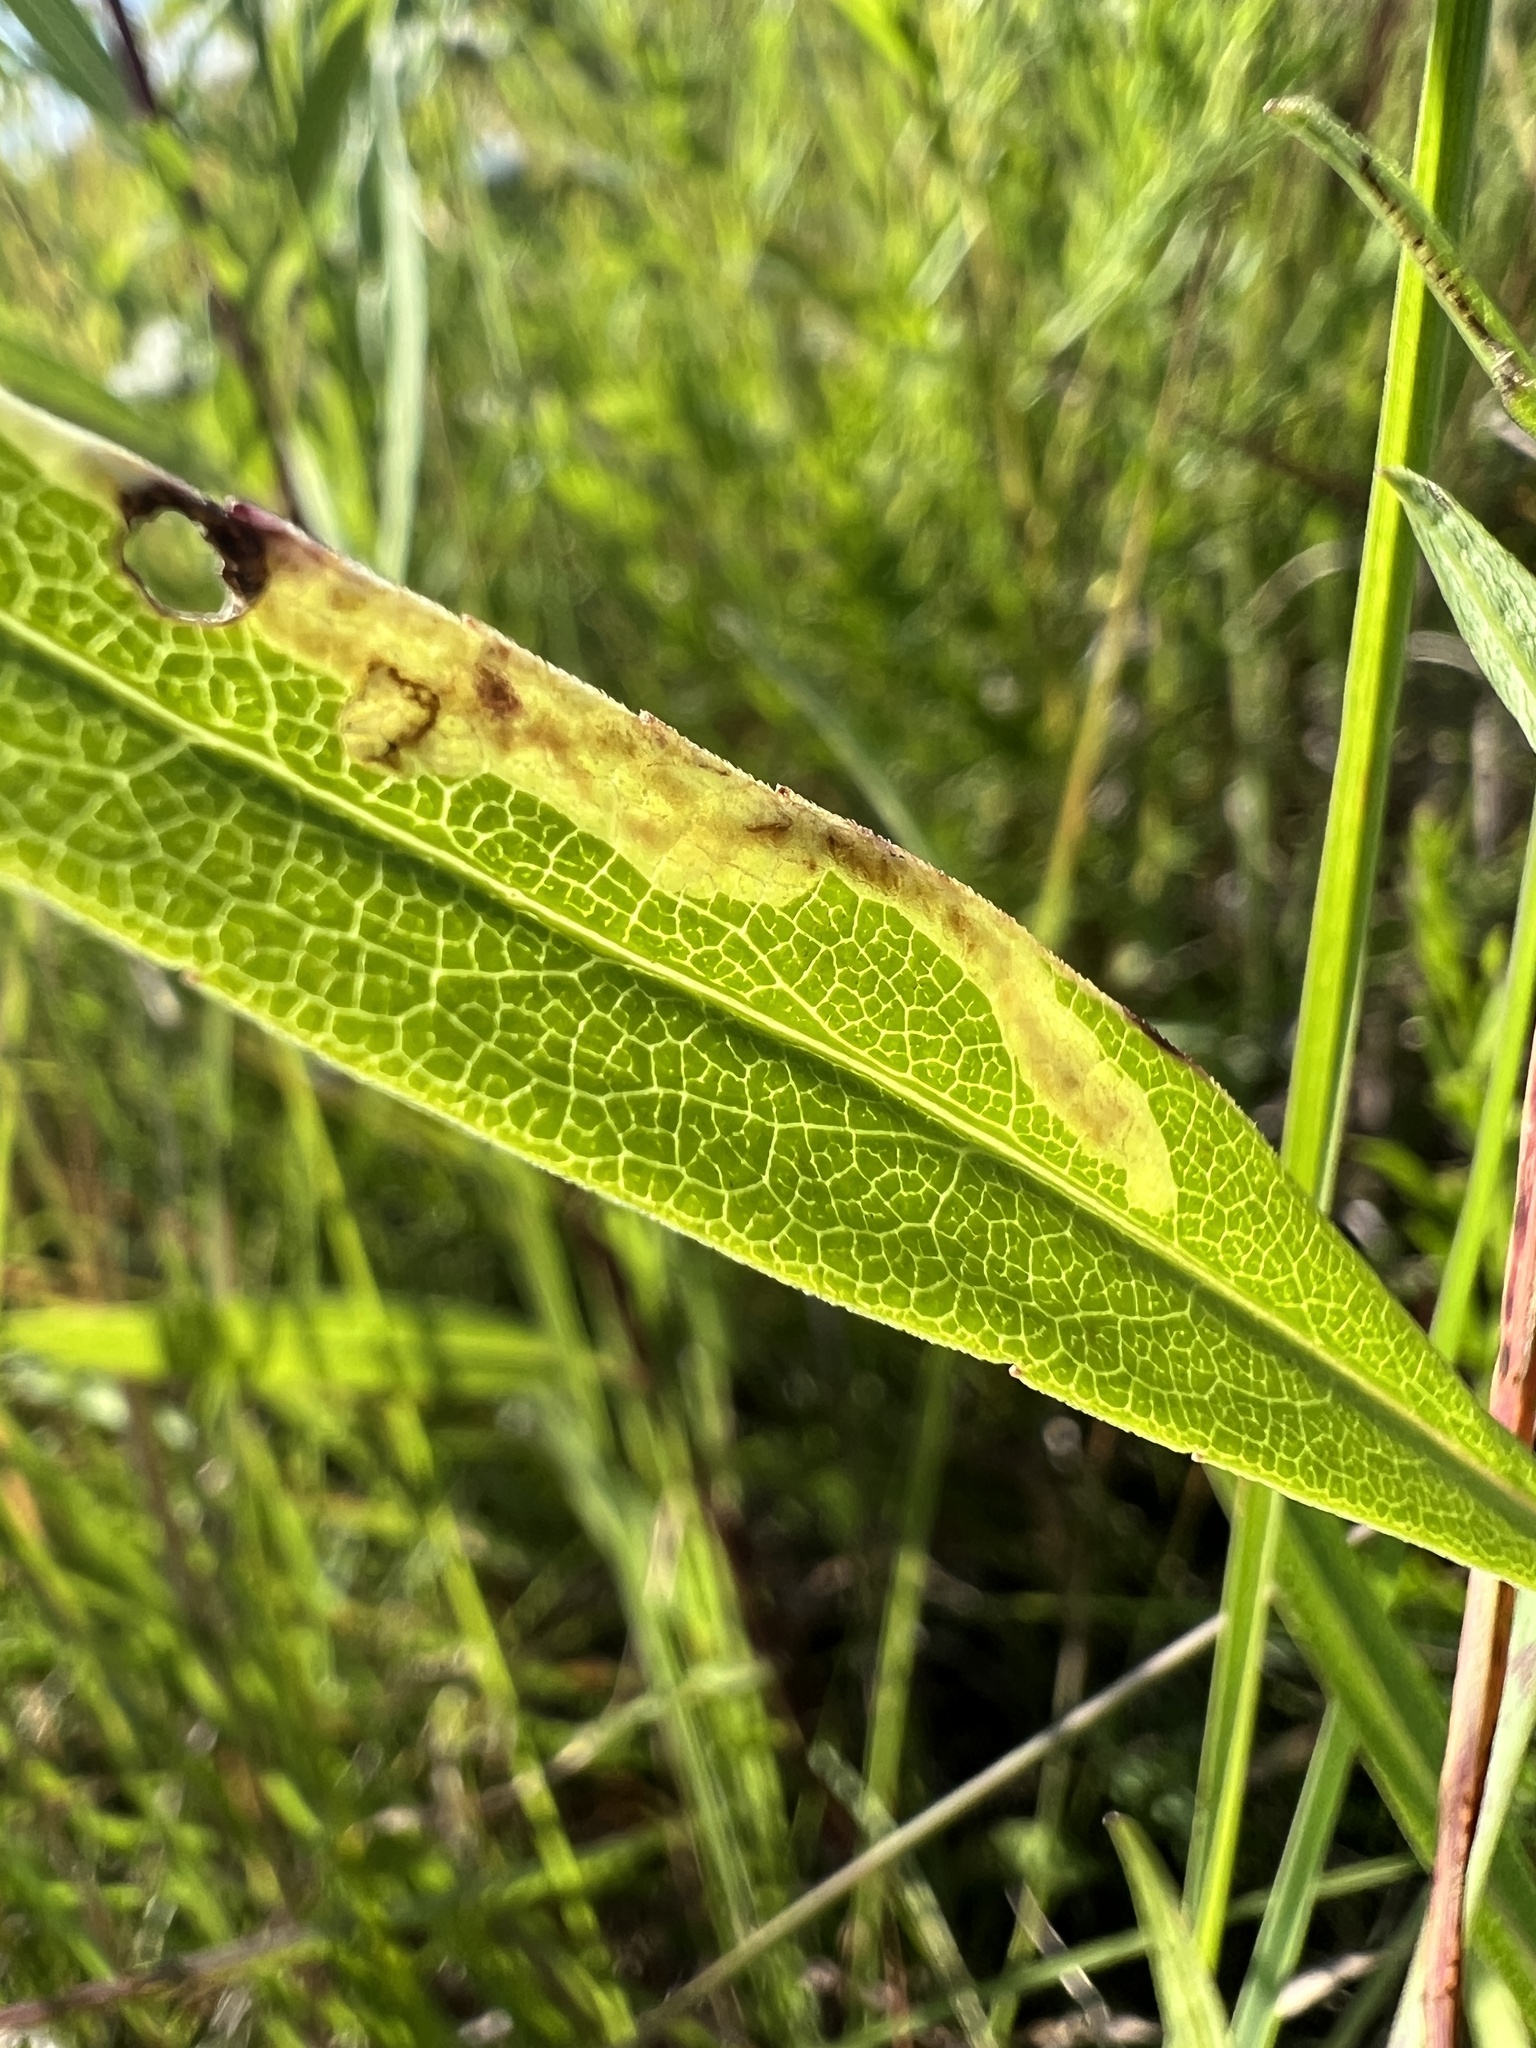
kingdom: Plantae
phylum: Tracheophyta
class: Magnoliopsida
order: Asterales
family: Asteraceae
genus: Symphyotrichum
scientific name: Symphyotrichum praealtum
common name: Willow aster
